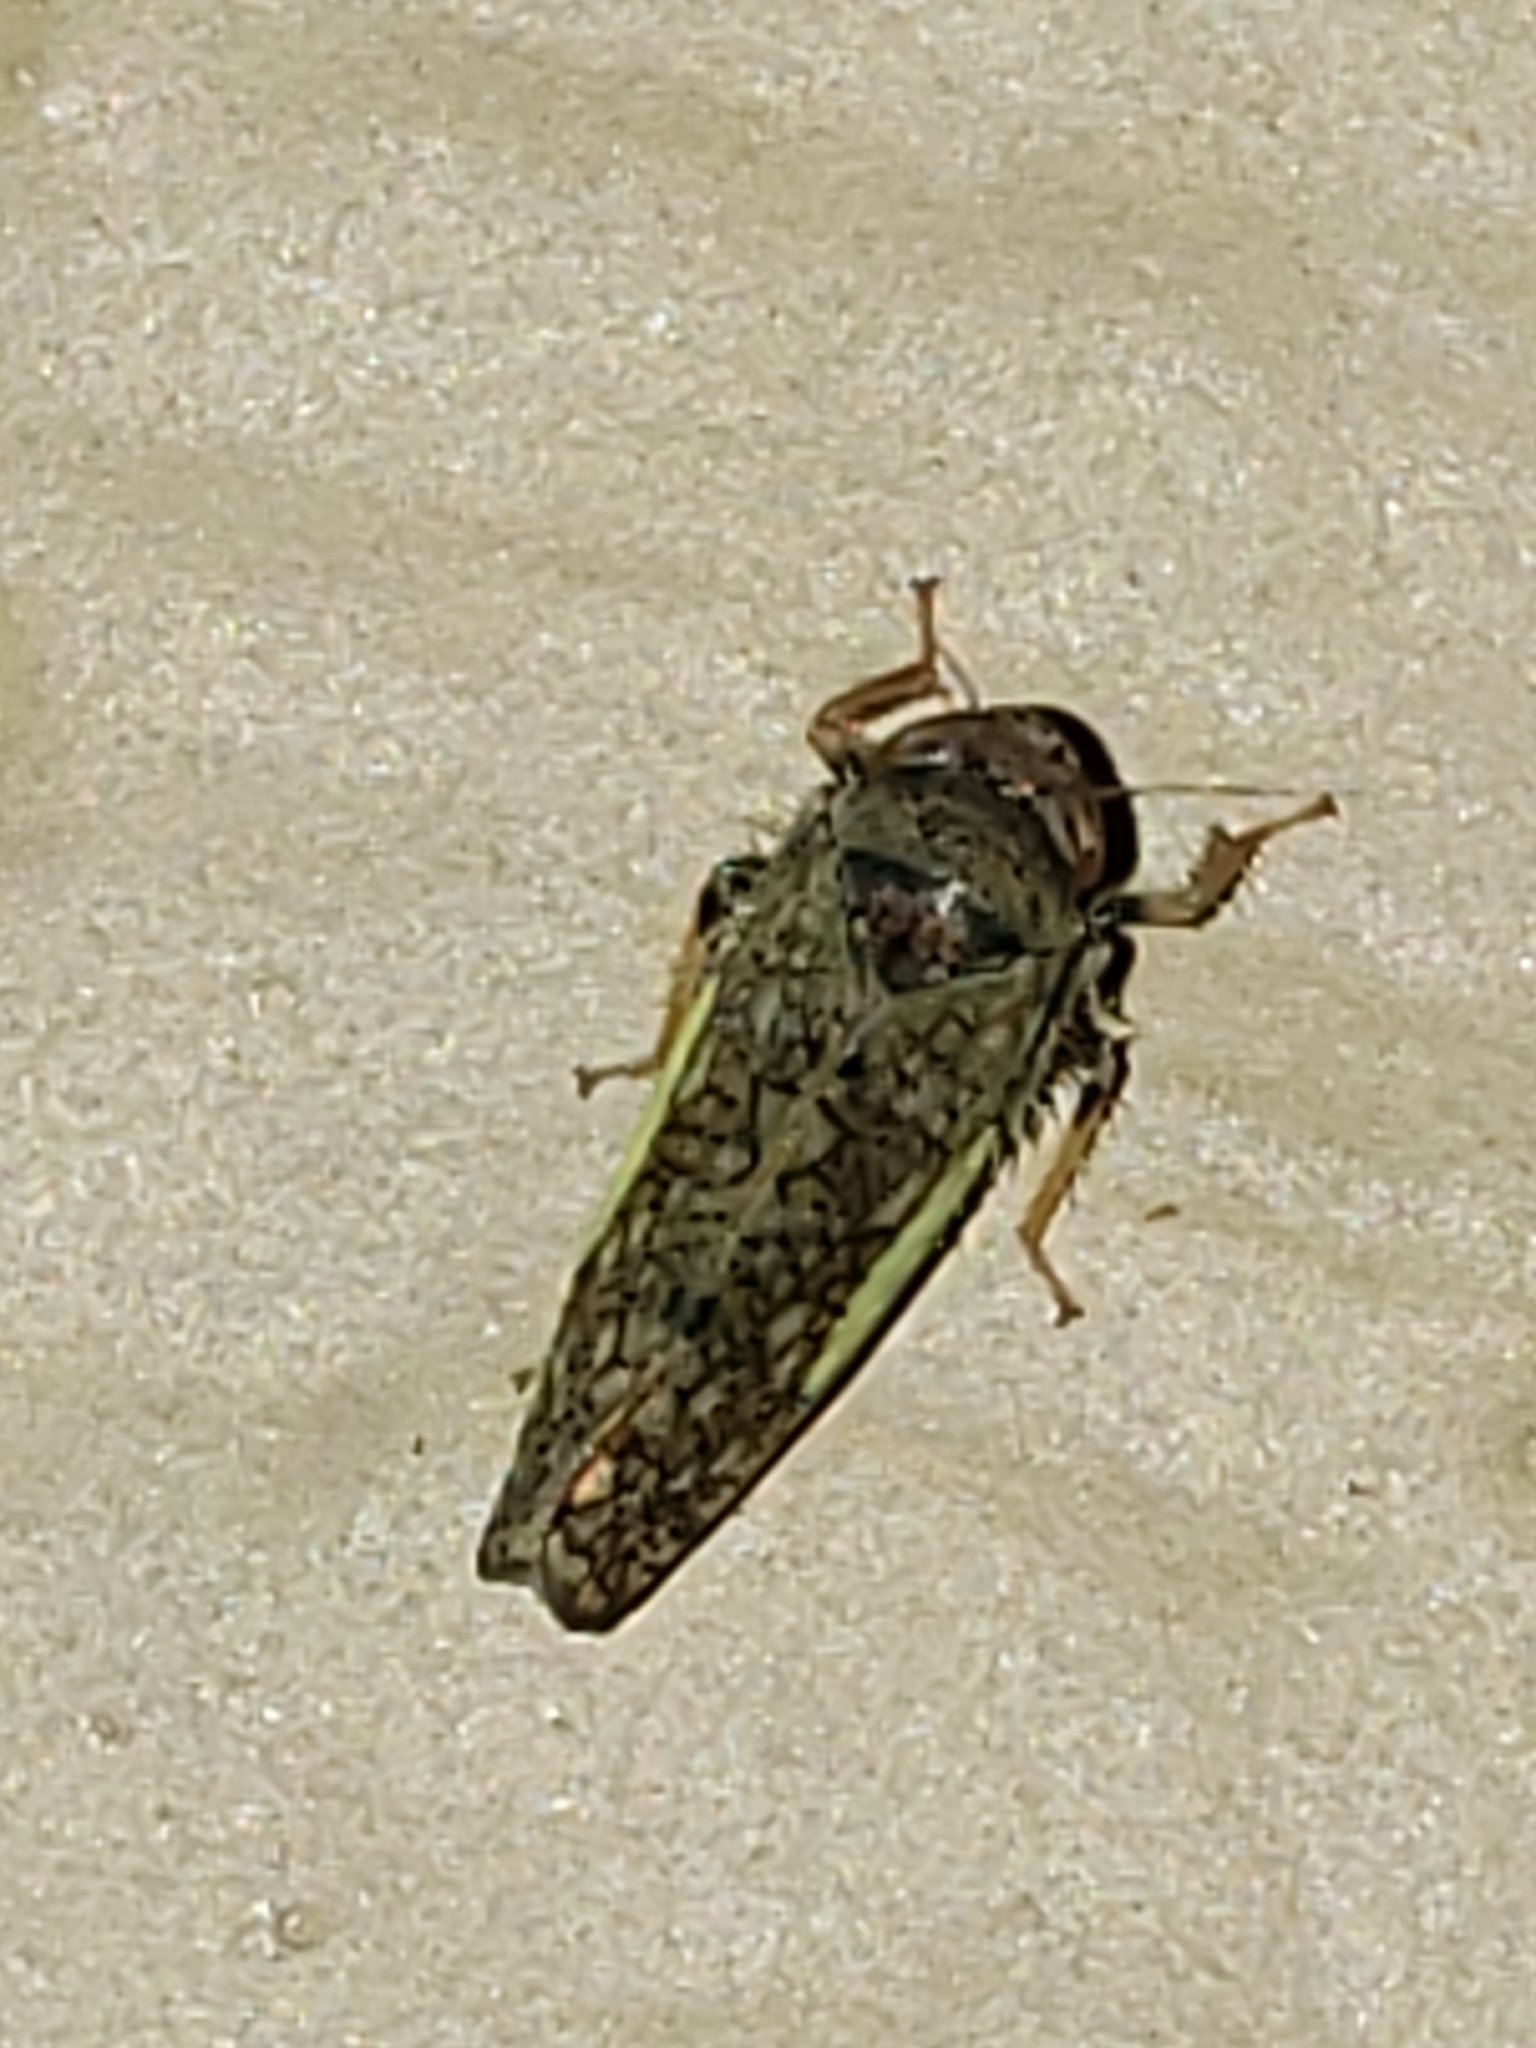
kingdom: Animalia
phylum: Arthropoda
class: Insecta
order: Hemiptera
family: Cicadellidae
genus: Orientus
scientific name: Orientus ishidae
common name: Japanese leafhopper
